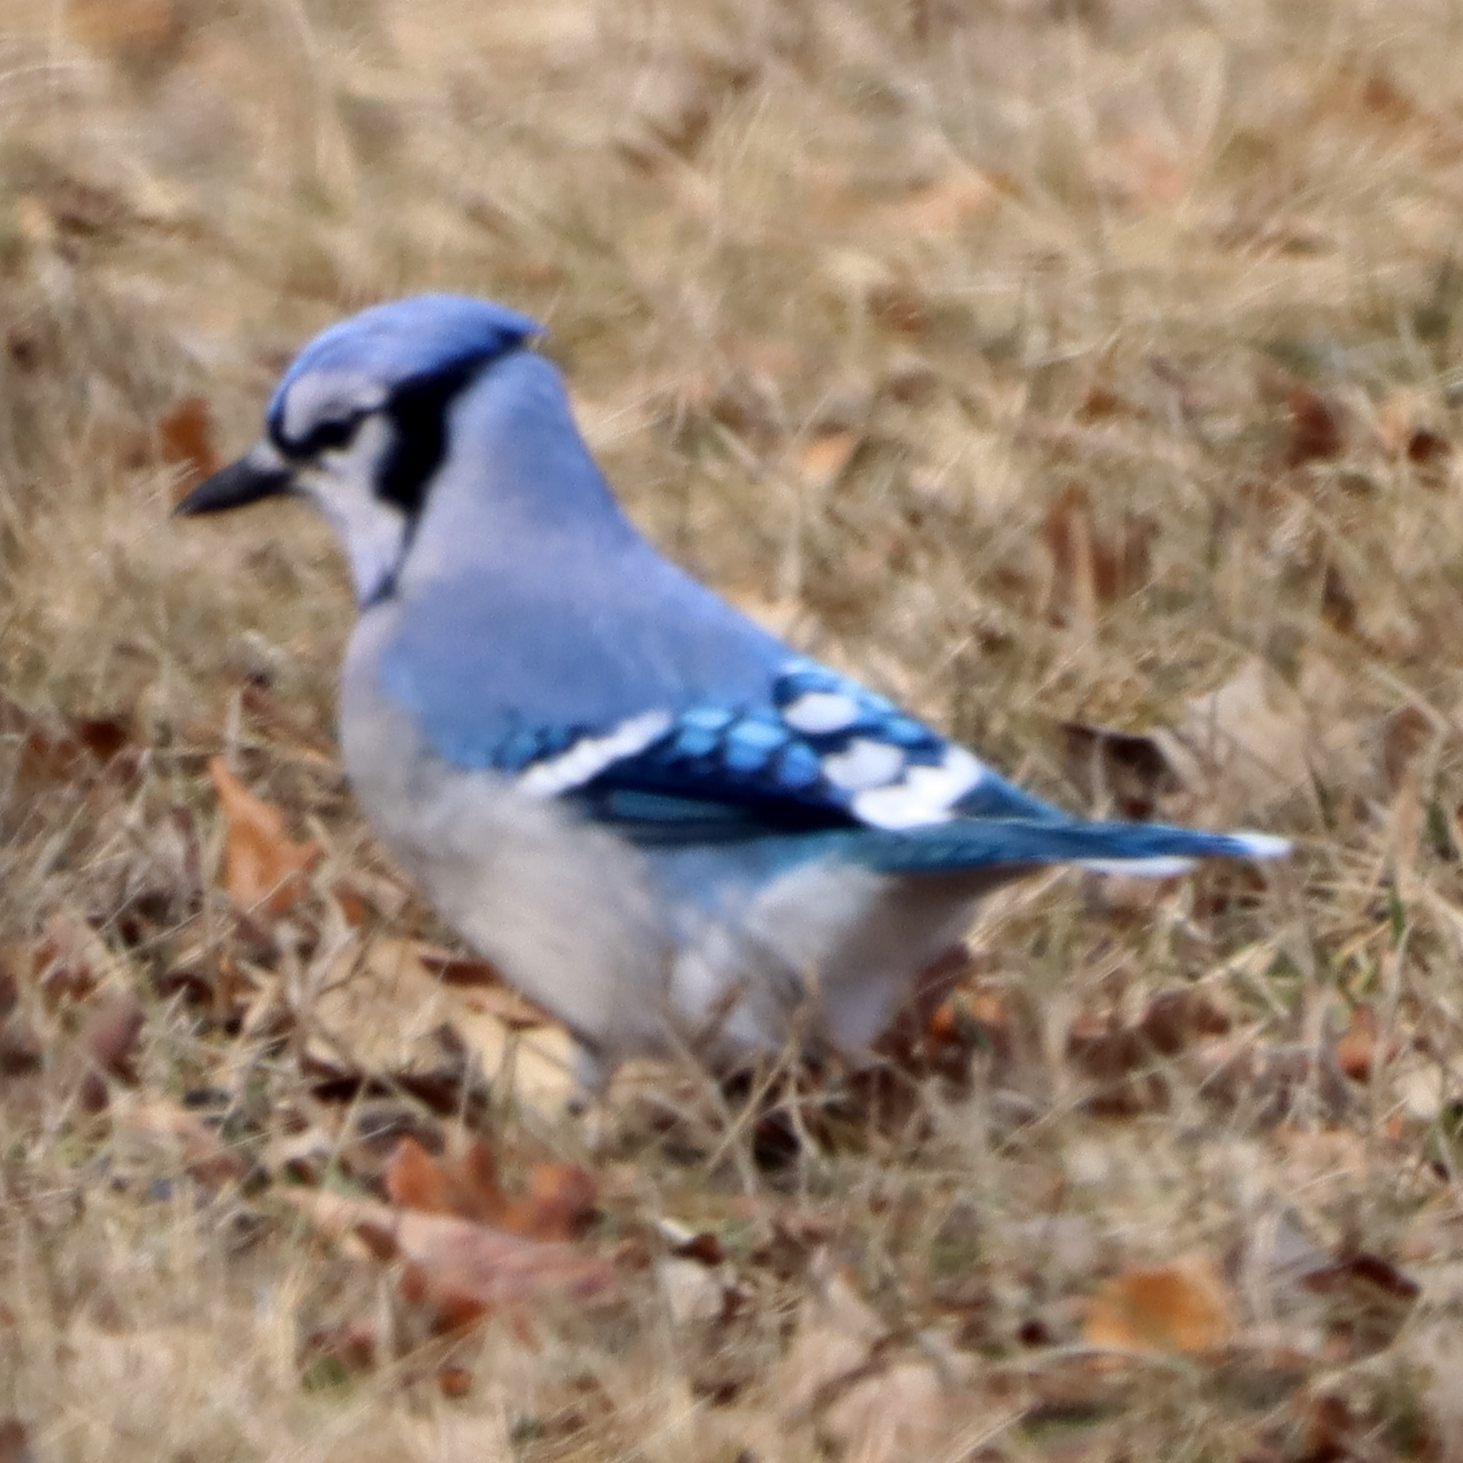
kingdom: Animalia
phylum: Chordata
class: Aves
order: Passeriformes
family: Corvidae
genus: Cyanocitta
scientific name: Cyanocitta cristata
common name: Blue jay
